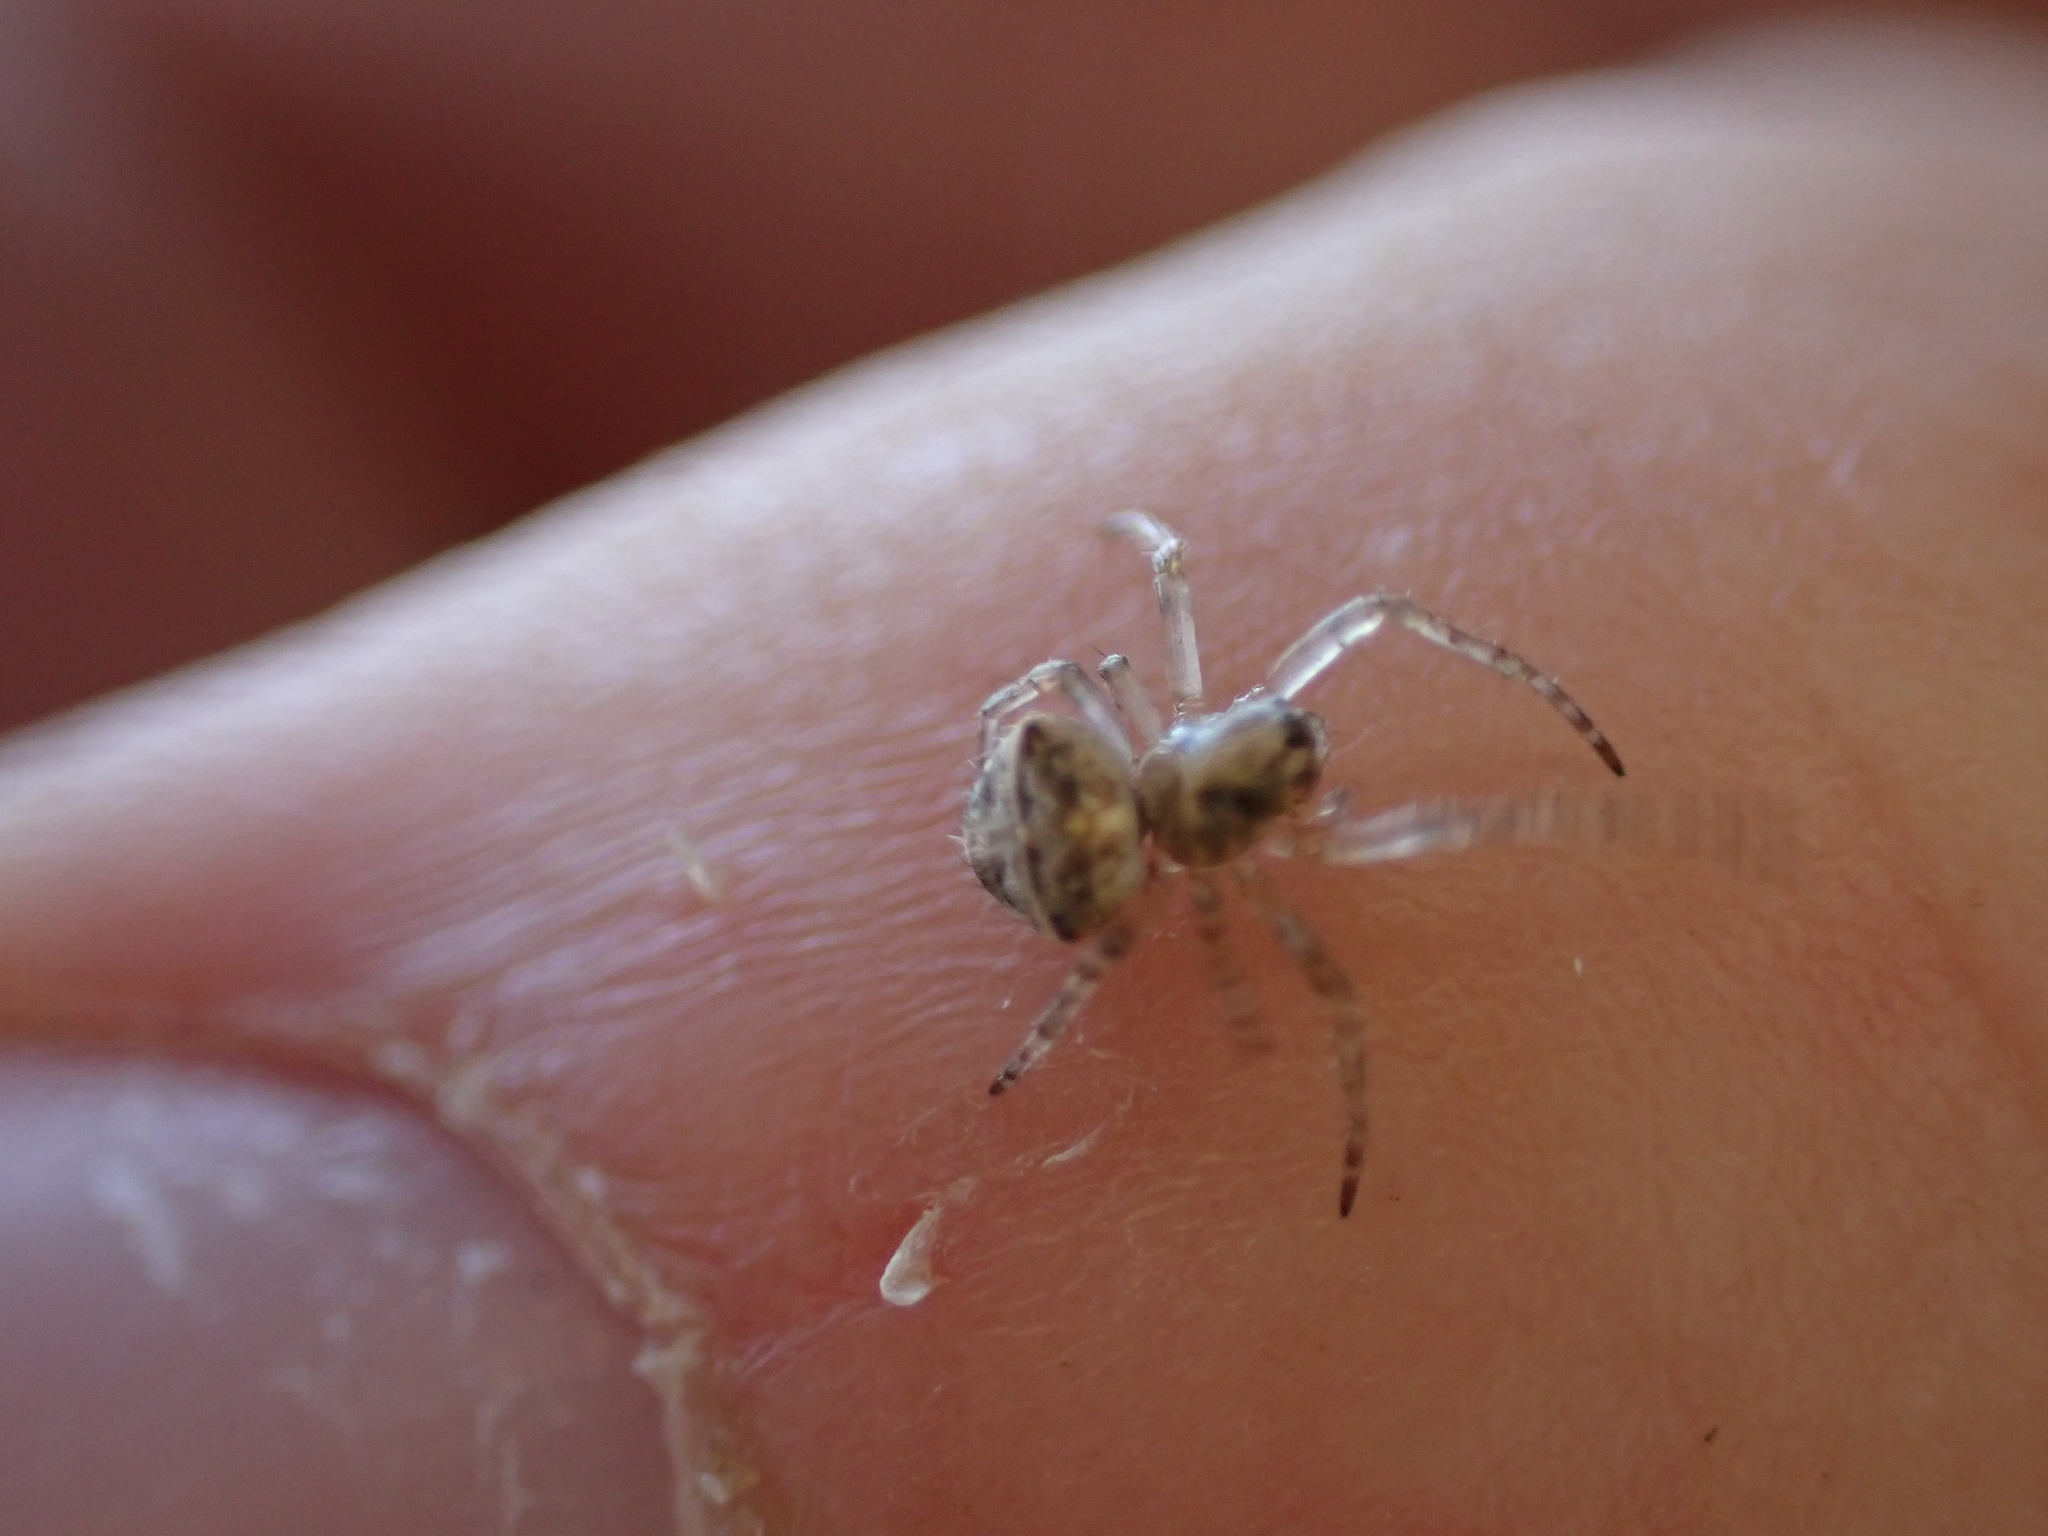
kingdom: Animalia
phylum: Arthropoda
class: Arachnida
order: Araneae
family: Araneidae
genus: Gibbaranea
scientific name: Gibbaranea bituberculata
